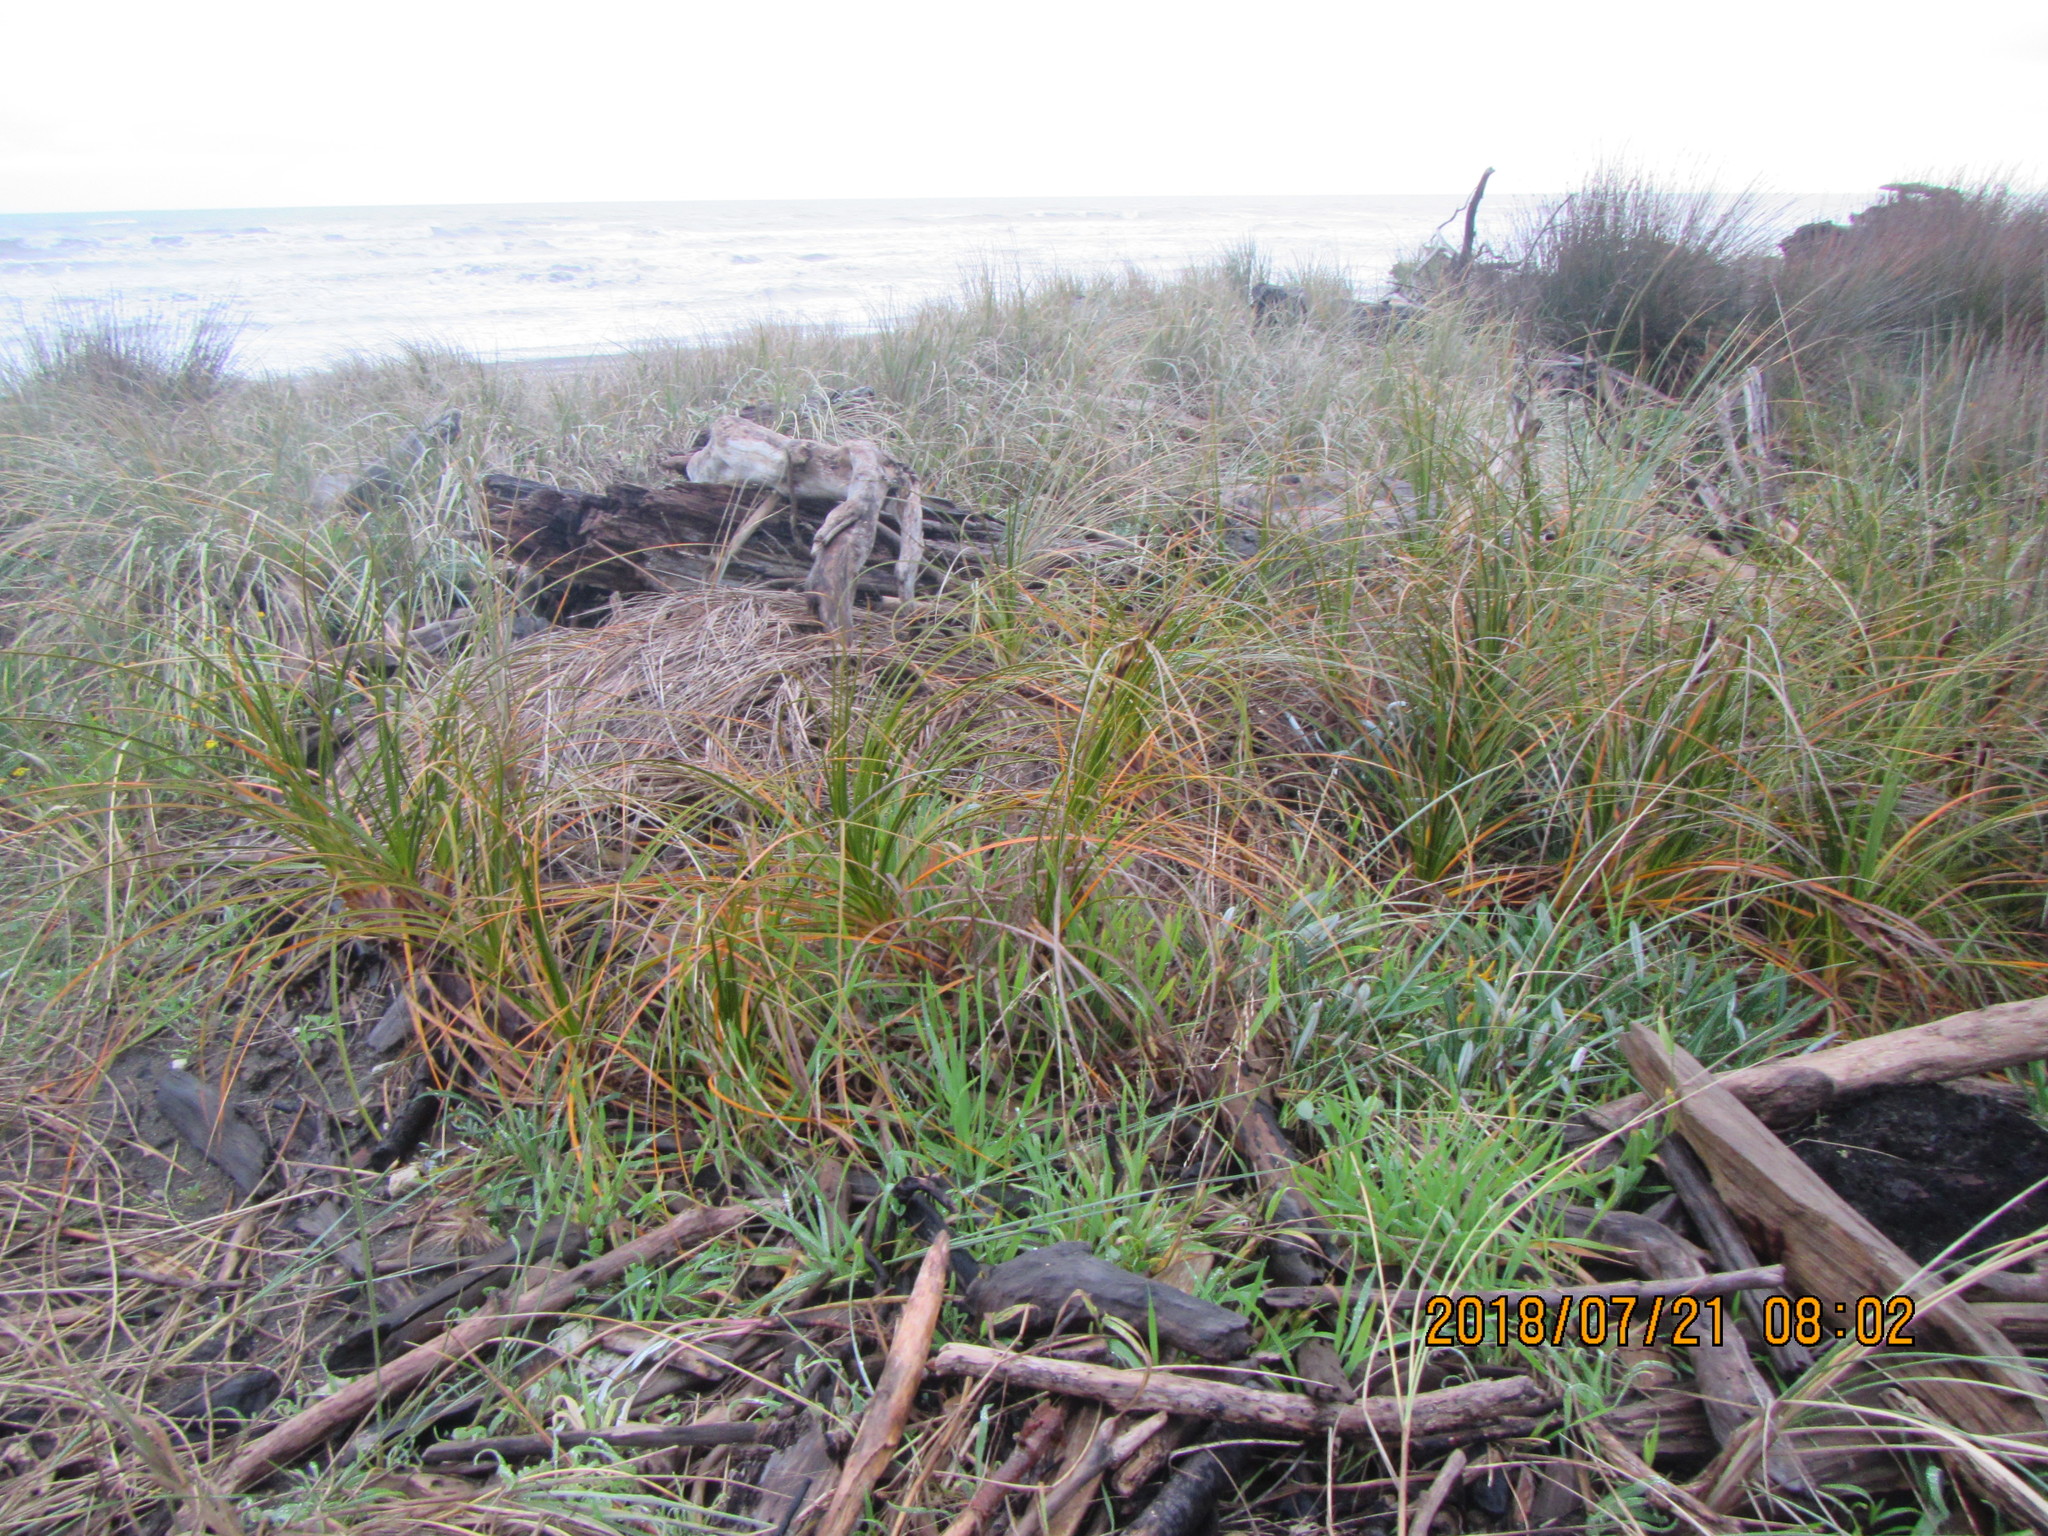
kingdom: Plantae
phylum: Tracheophyta
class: Liliopsida
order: Poales
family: Cyperaceae
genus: Ficinia
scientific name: Ficinia spiralis
